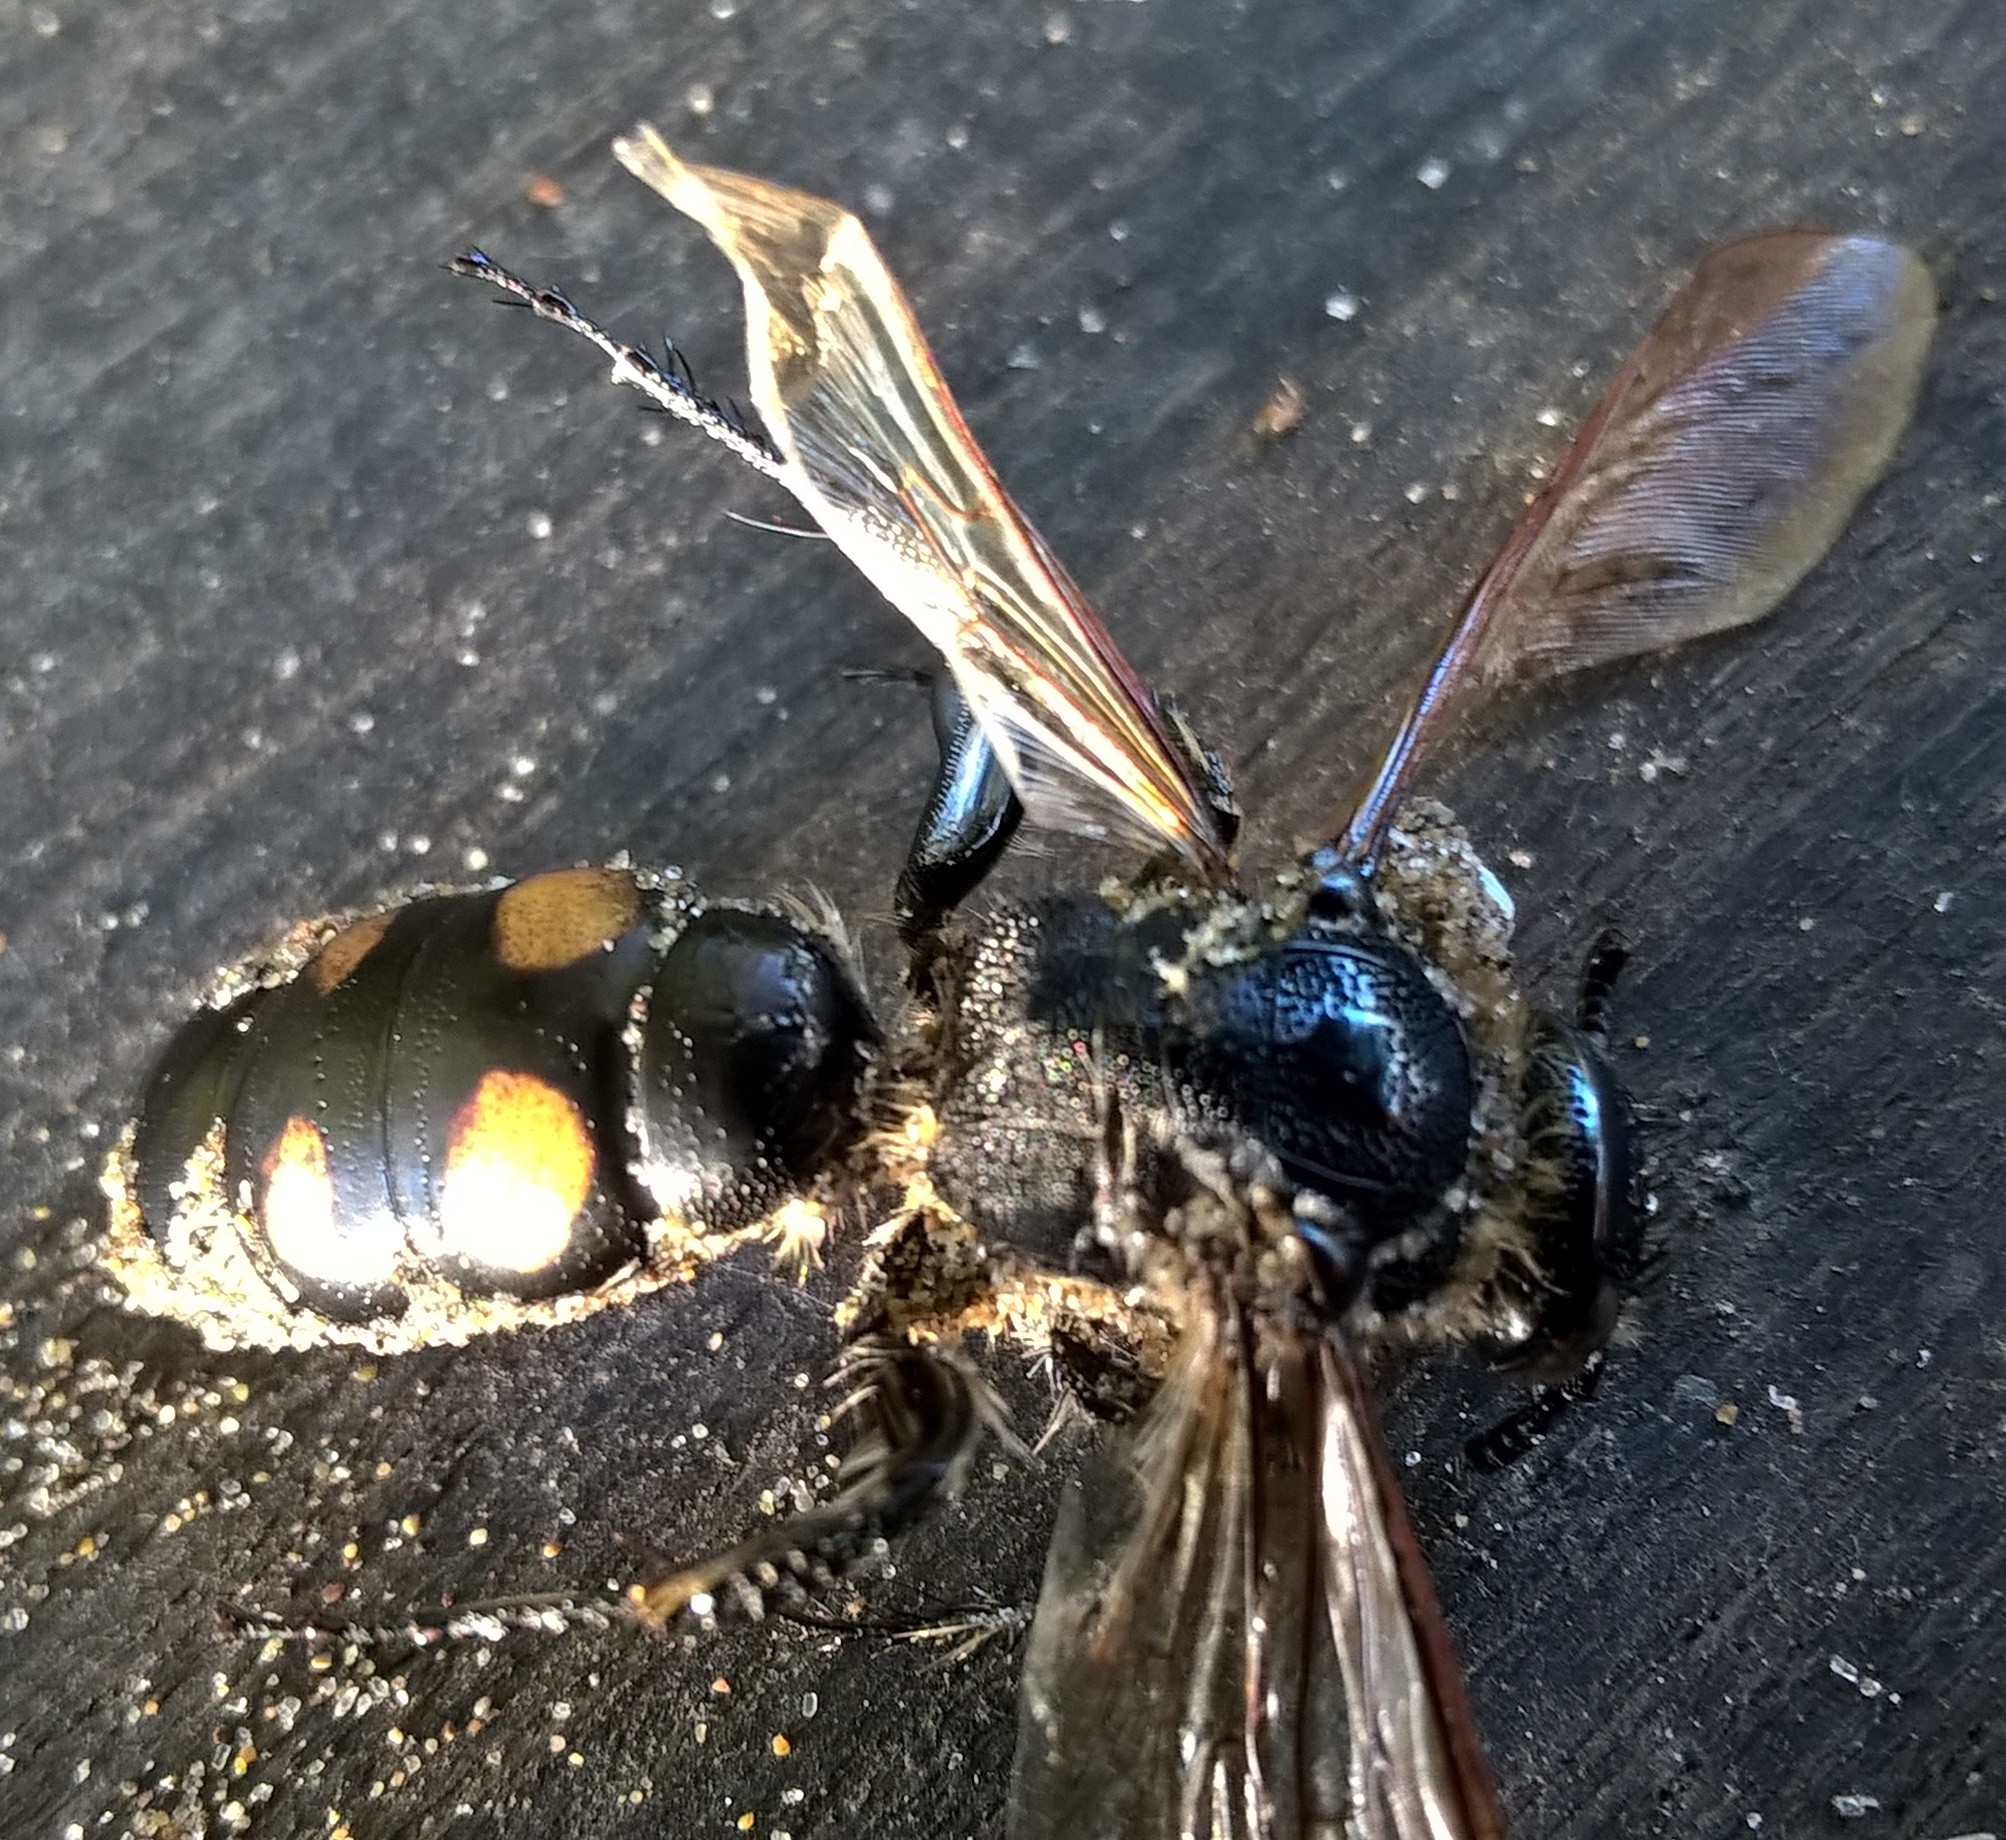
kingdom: Animalia
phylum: Arthropoda
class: Insecta
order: Hymenoptera
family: Scoliidae
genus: Pygodasis
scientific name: Pygodasis
